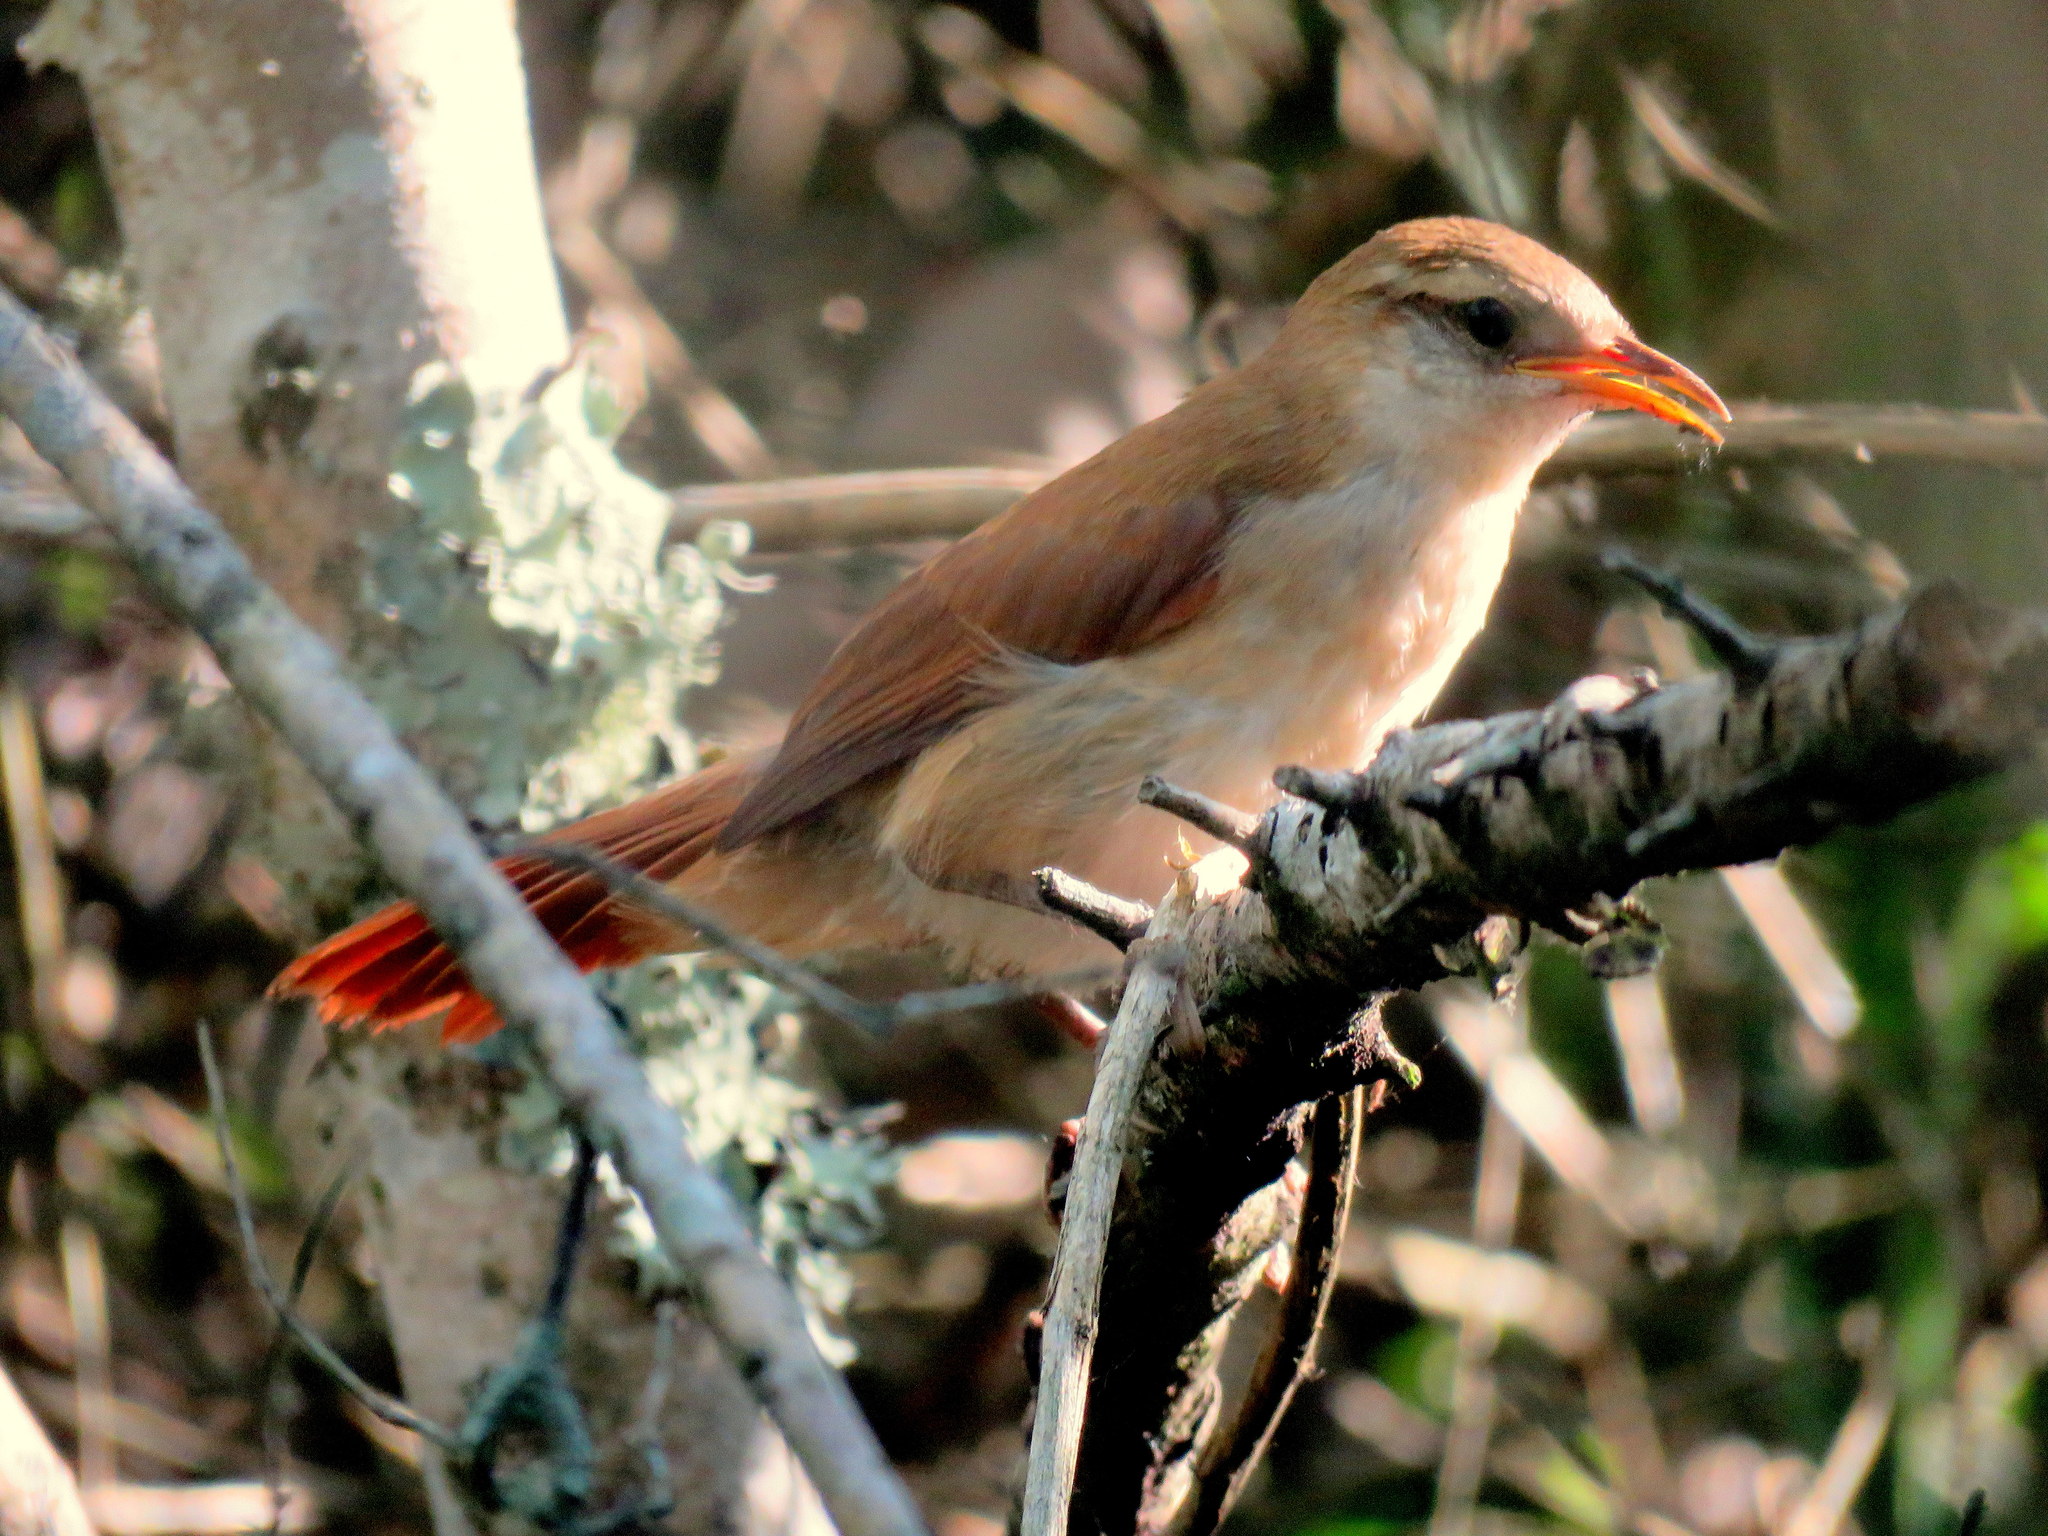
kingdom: Animalia
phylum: Chordata
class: Aves
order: Passeriformes
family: Furnariidae
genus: Limnornis
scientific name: Limnornis curvirostris
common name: Curve-billed reedhaunter
